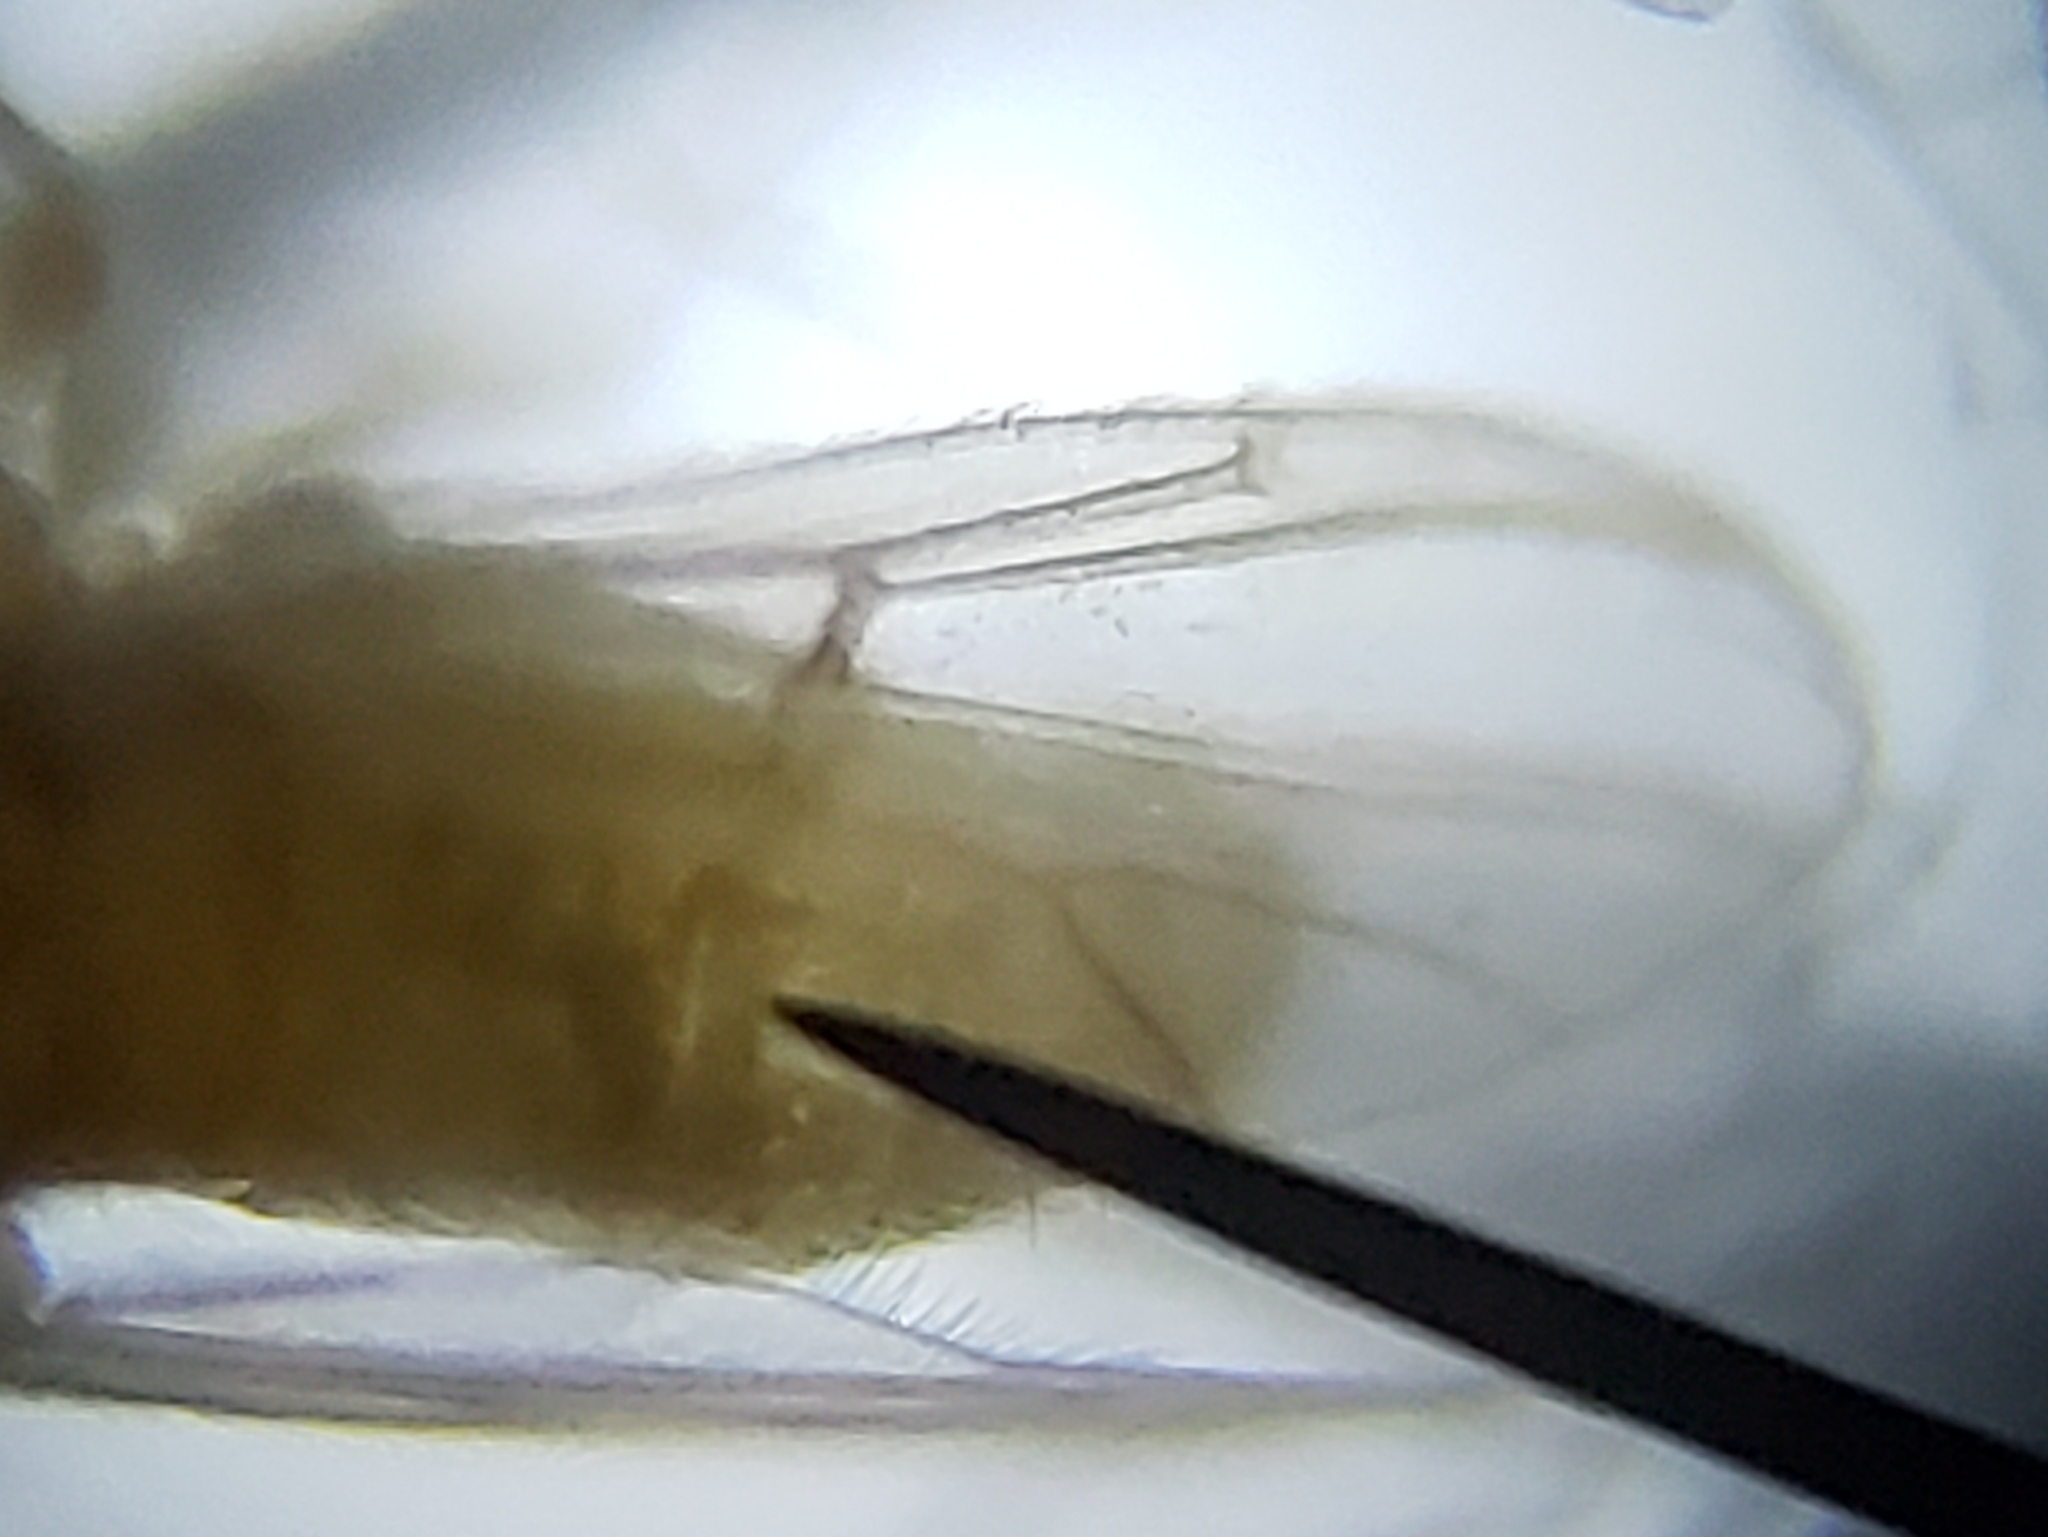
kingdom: Animalia
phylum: Arthropoda
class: Insecta
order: Diptera
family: Chironomidae
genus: Procladius
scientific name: Procladius bellus
